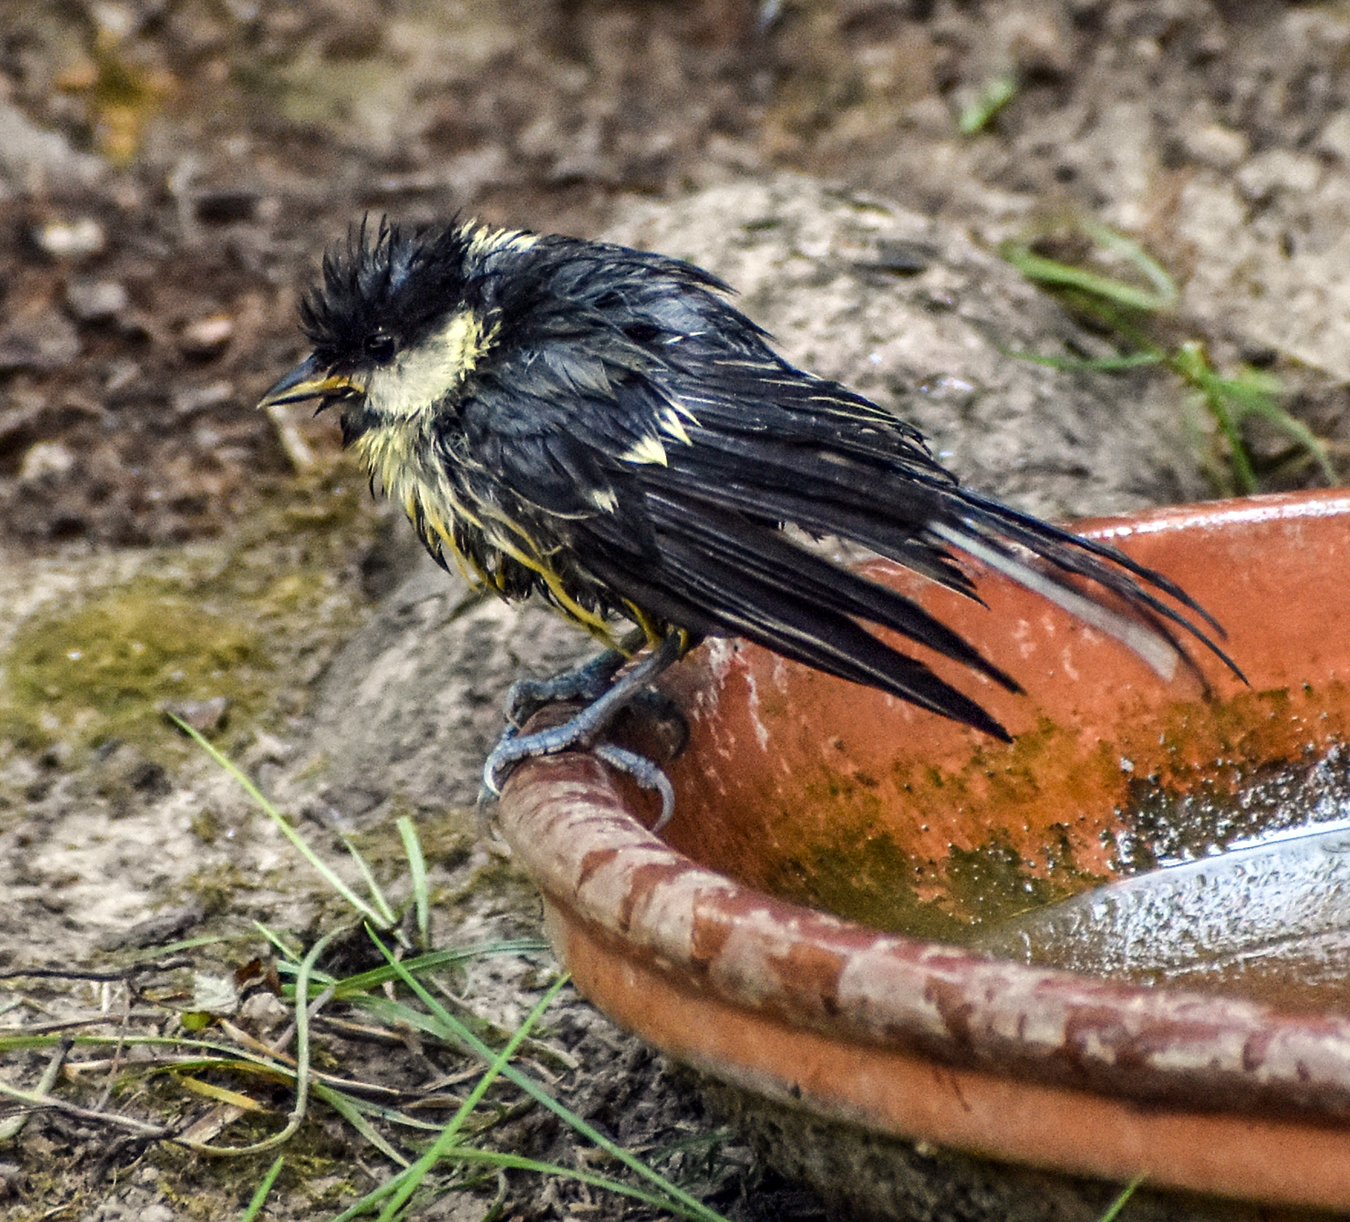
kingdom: Animalia
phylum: Chordata
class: Aves
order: Passeriformes
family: Paridae
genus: Parus
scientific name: Parus major
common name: Great tit
